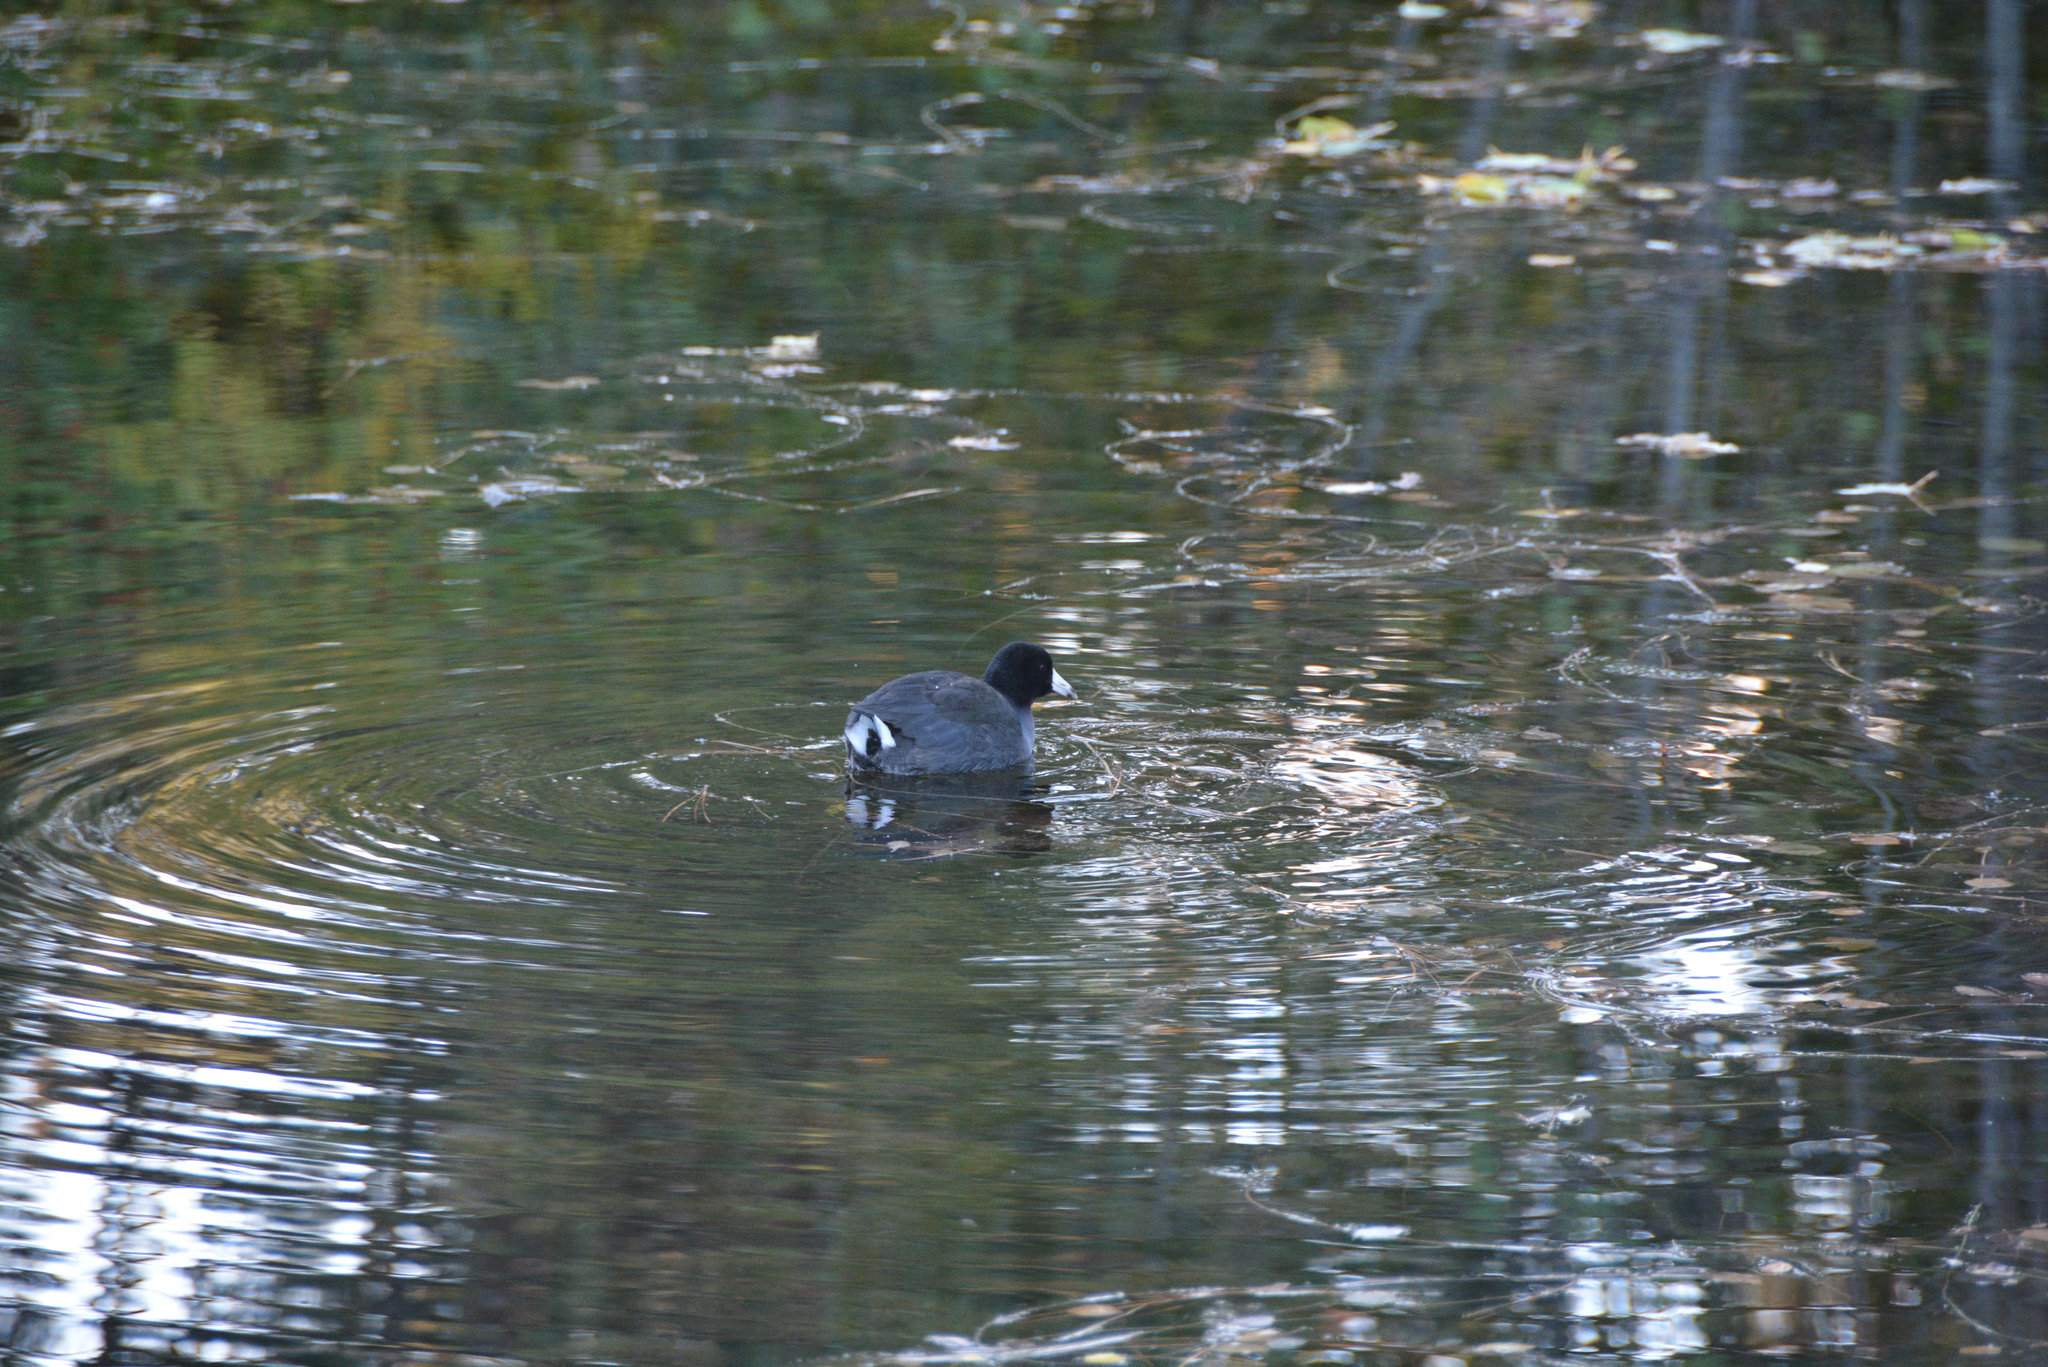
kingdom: Animalia
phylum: Chordata
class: Aves
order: Gruiformes
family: Rallidae
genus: Fulica
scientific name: Fulica americana
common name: American coot
